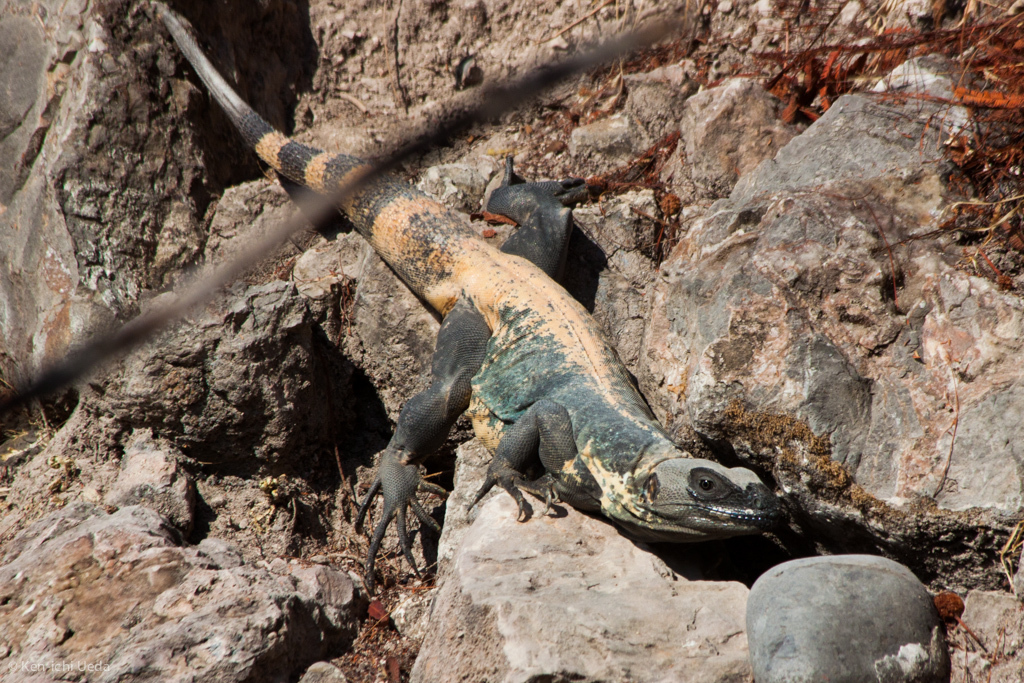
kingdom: Animalia
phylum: Chordata
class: Squamata
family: Iguanidae
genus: Ctenosaura
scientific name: Ctenosaura pectinata
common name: Guerreran spiny-tailed iguana
